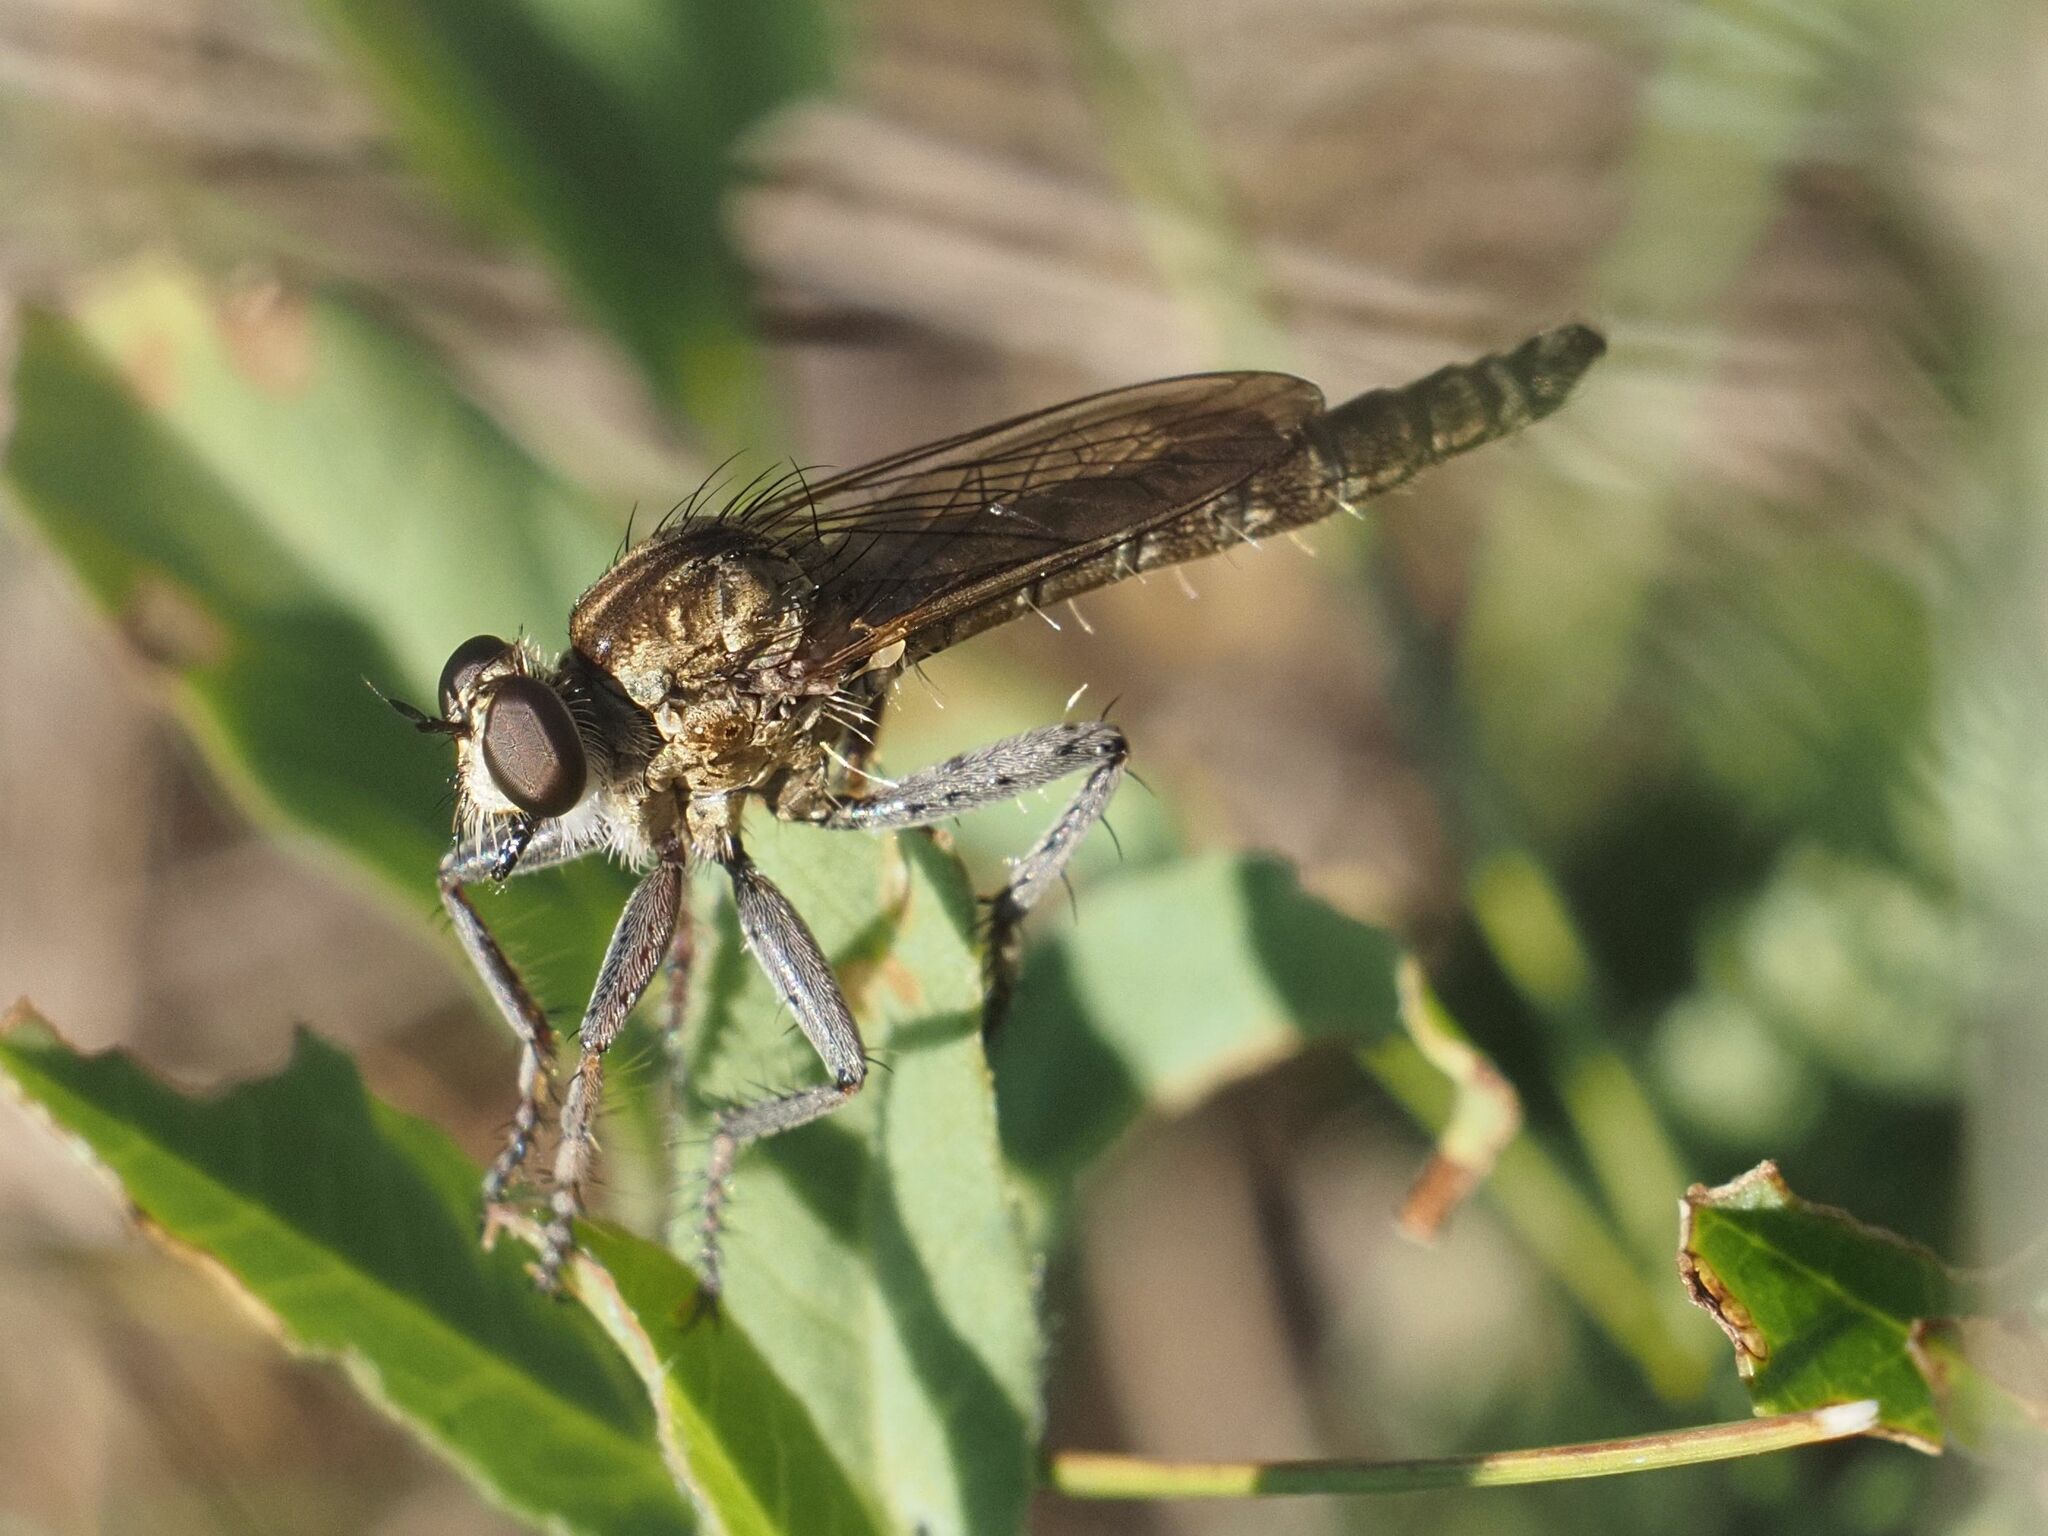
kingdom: Animalia
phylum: Arthropoda
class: Insecta
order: Diptera
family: Asilidae
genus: Epitriptus
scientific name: Epitriptus setosulus
